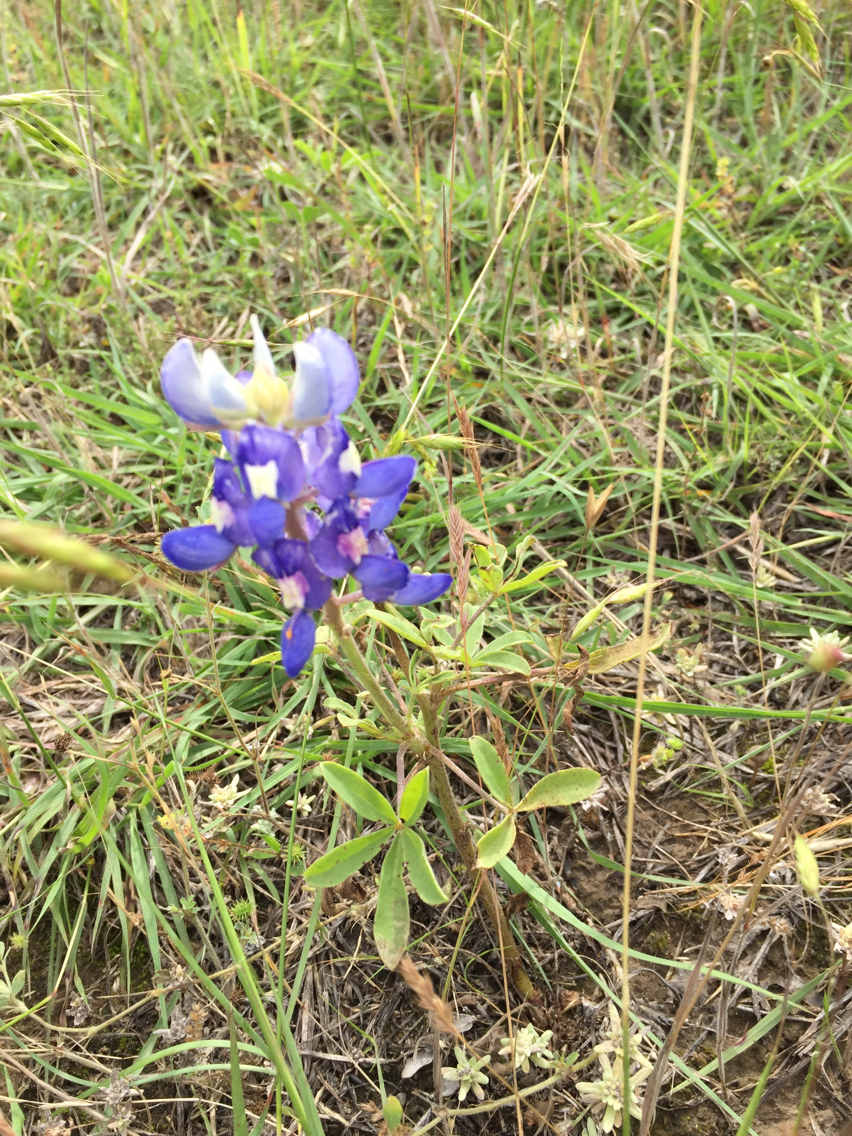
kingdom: Plantae
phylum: Tracheophyta
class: Magnoliopsida
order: Fabales
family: Fabaceae
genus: Lupinus
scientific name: Lupinus texensis
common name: Texas bluebonnet
